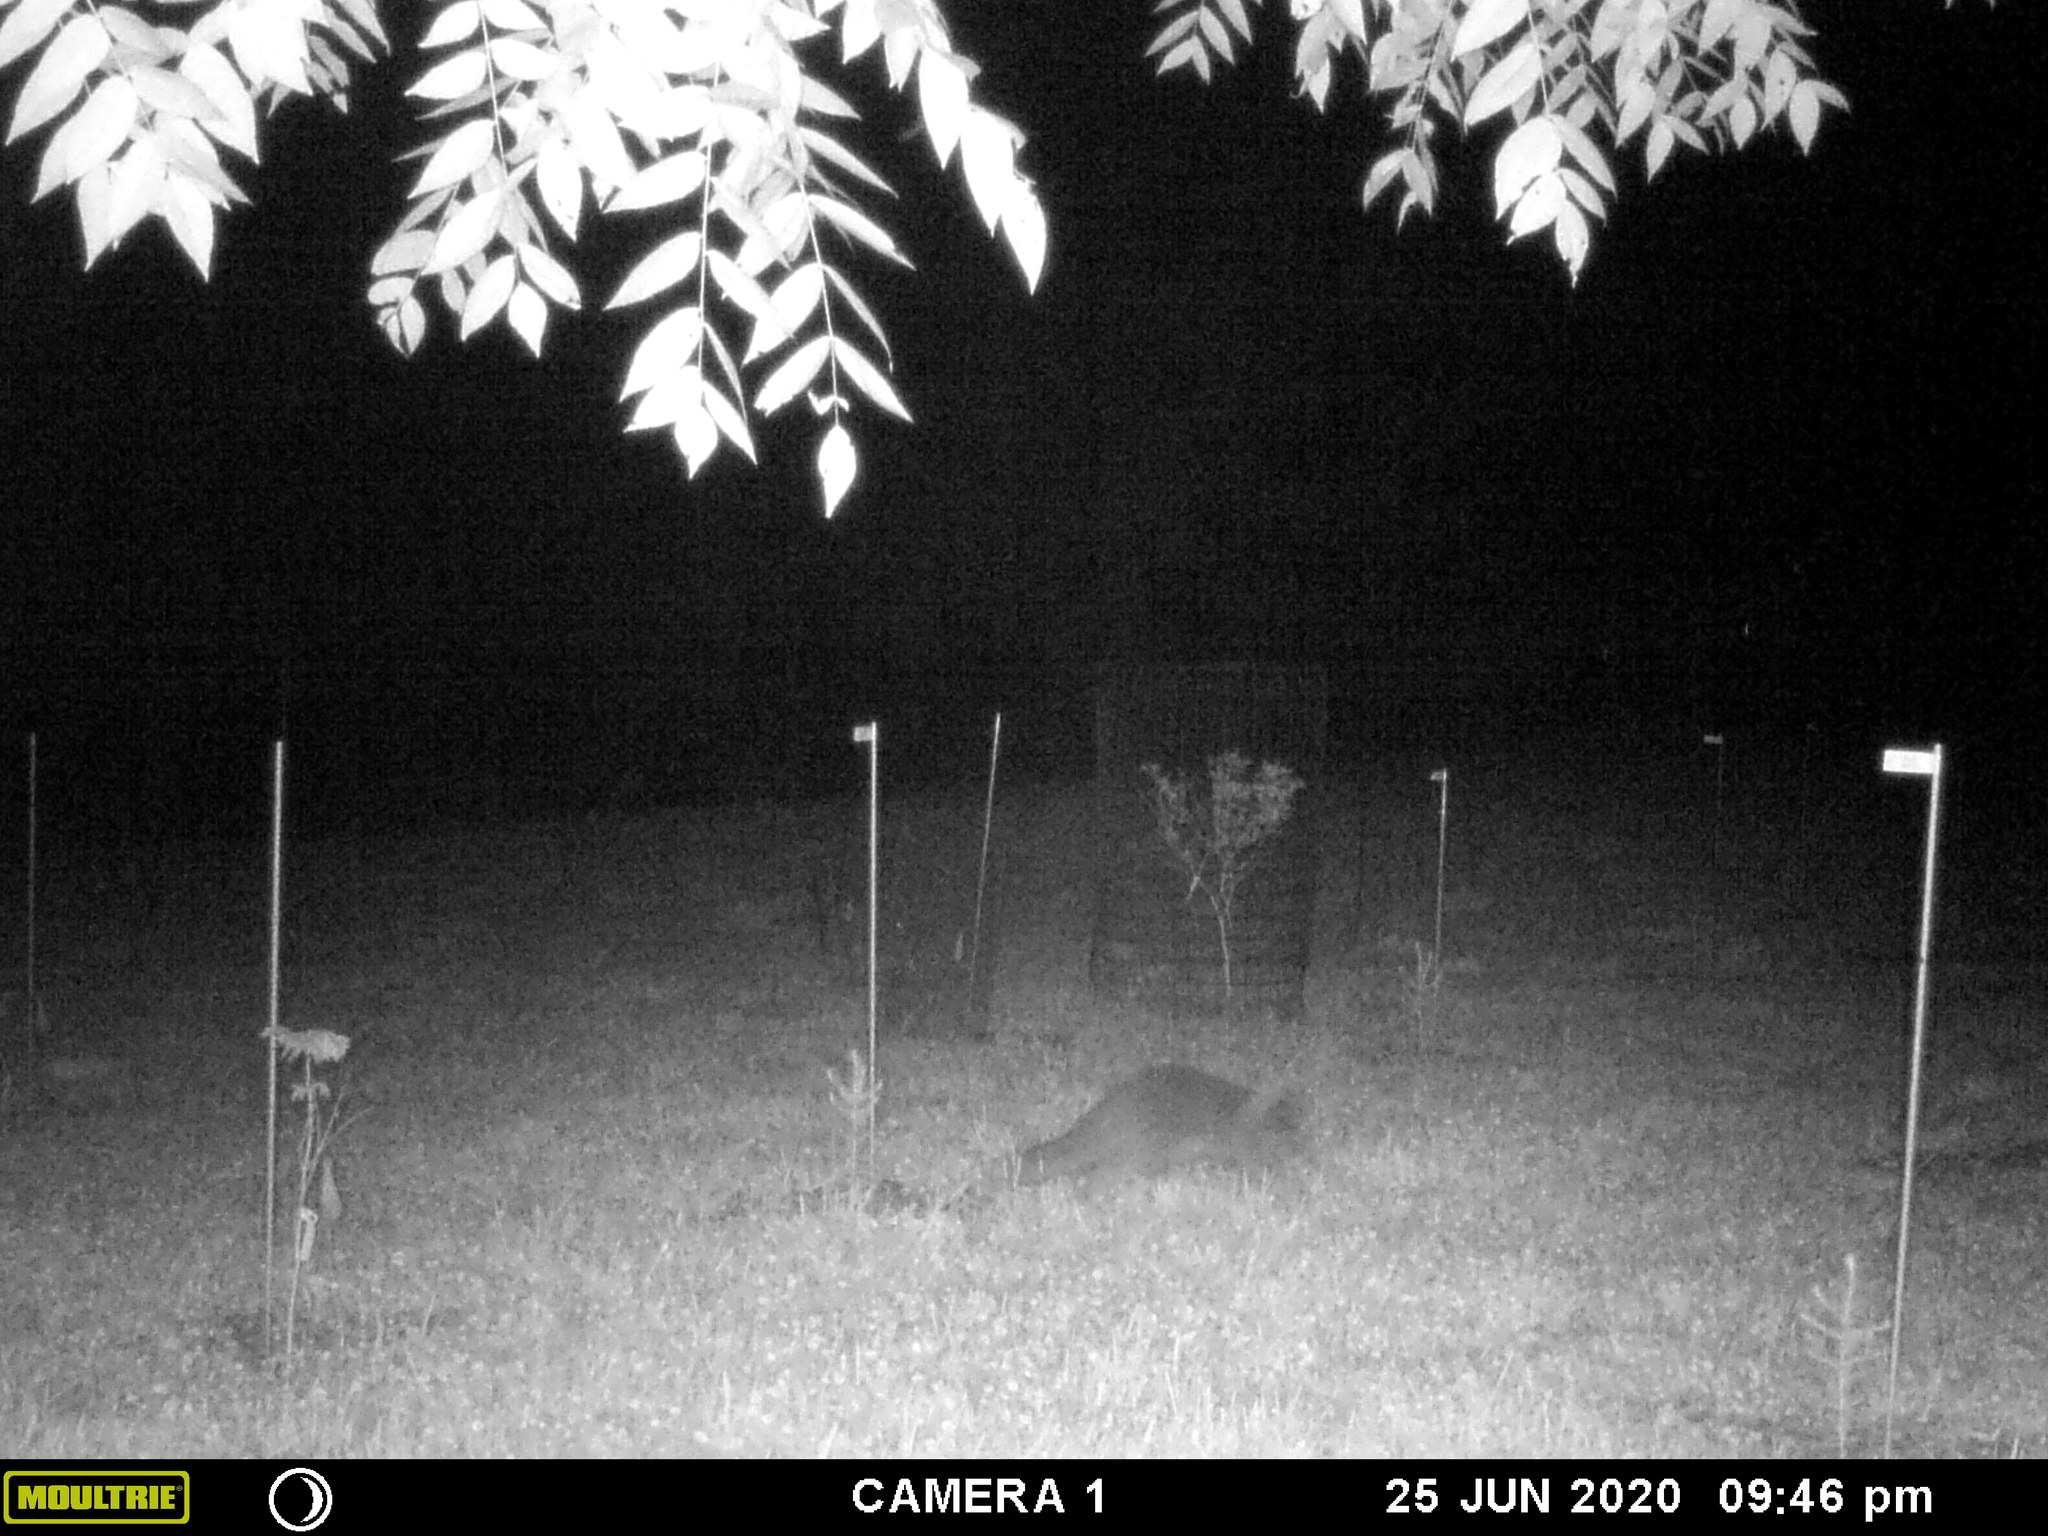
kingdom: Animalia
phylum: Chordata
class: Mammalia
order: Carnivora
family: Procyonidae
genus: Procyon
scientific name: Procyon lotor
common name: Raccoon
